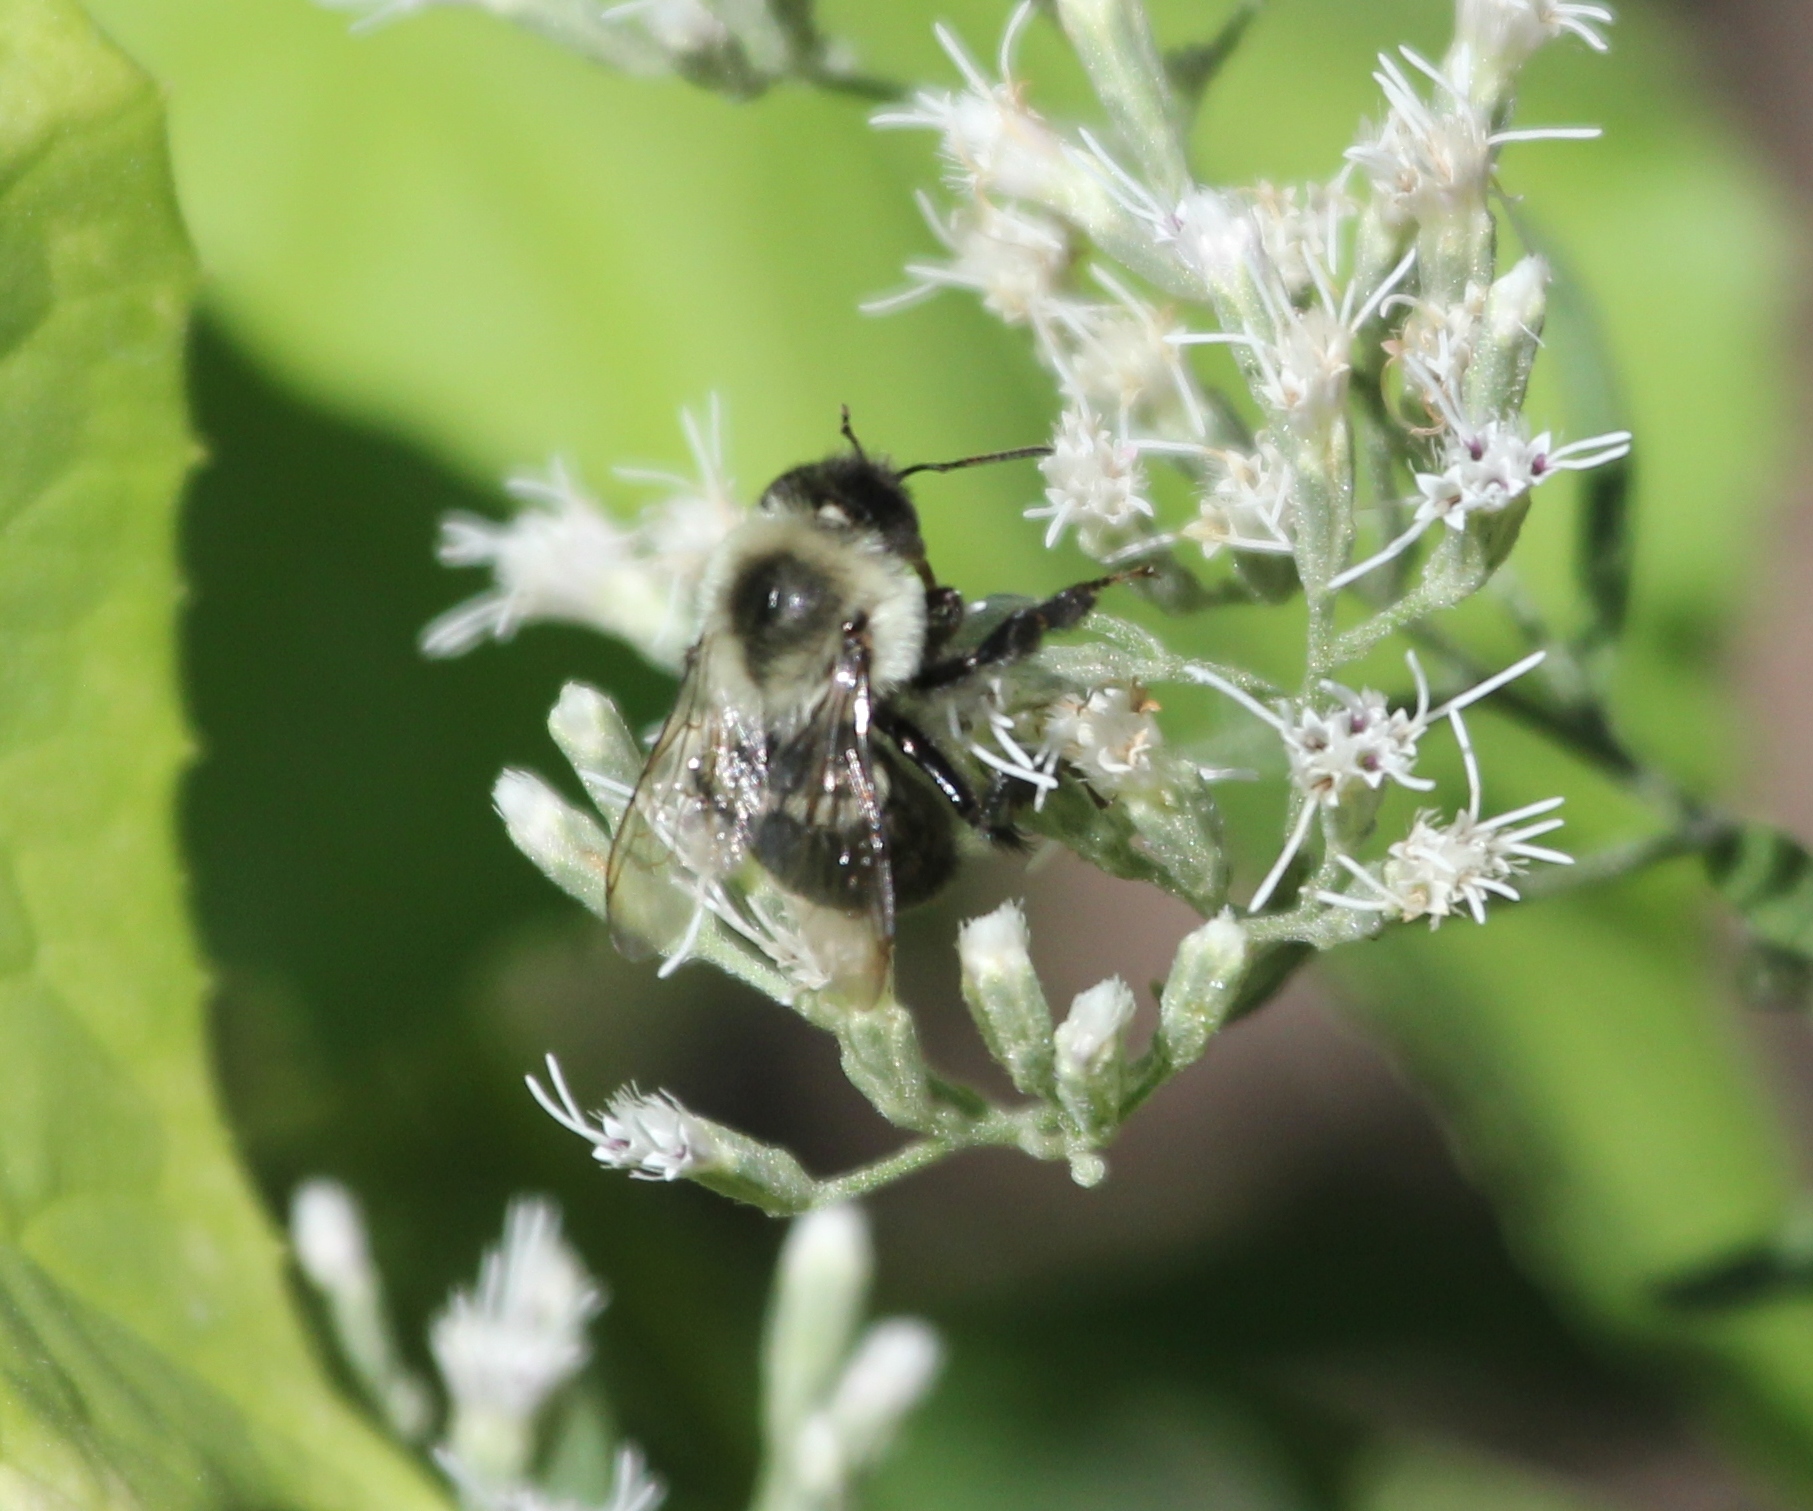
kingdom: Animalia
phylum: Arthropoda
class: Insecta
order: Hymenoptera
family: Apidae
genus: Bombus
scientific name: Bombus impatiens
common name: Common eastern bumble bee
